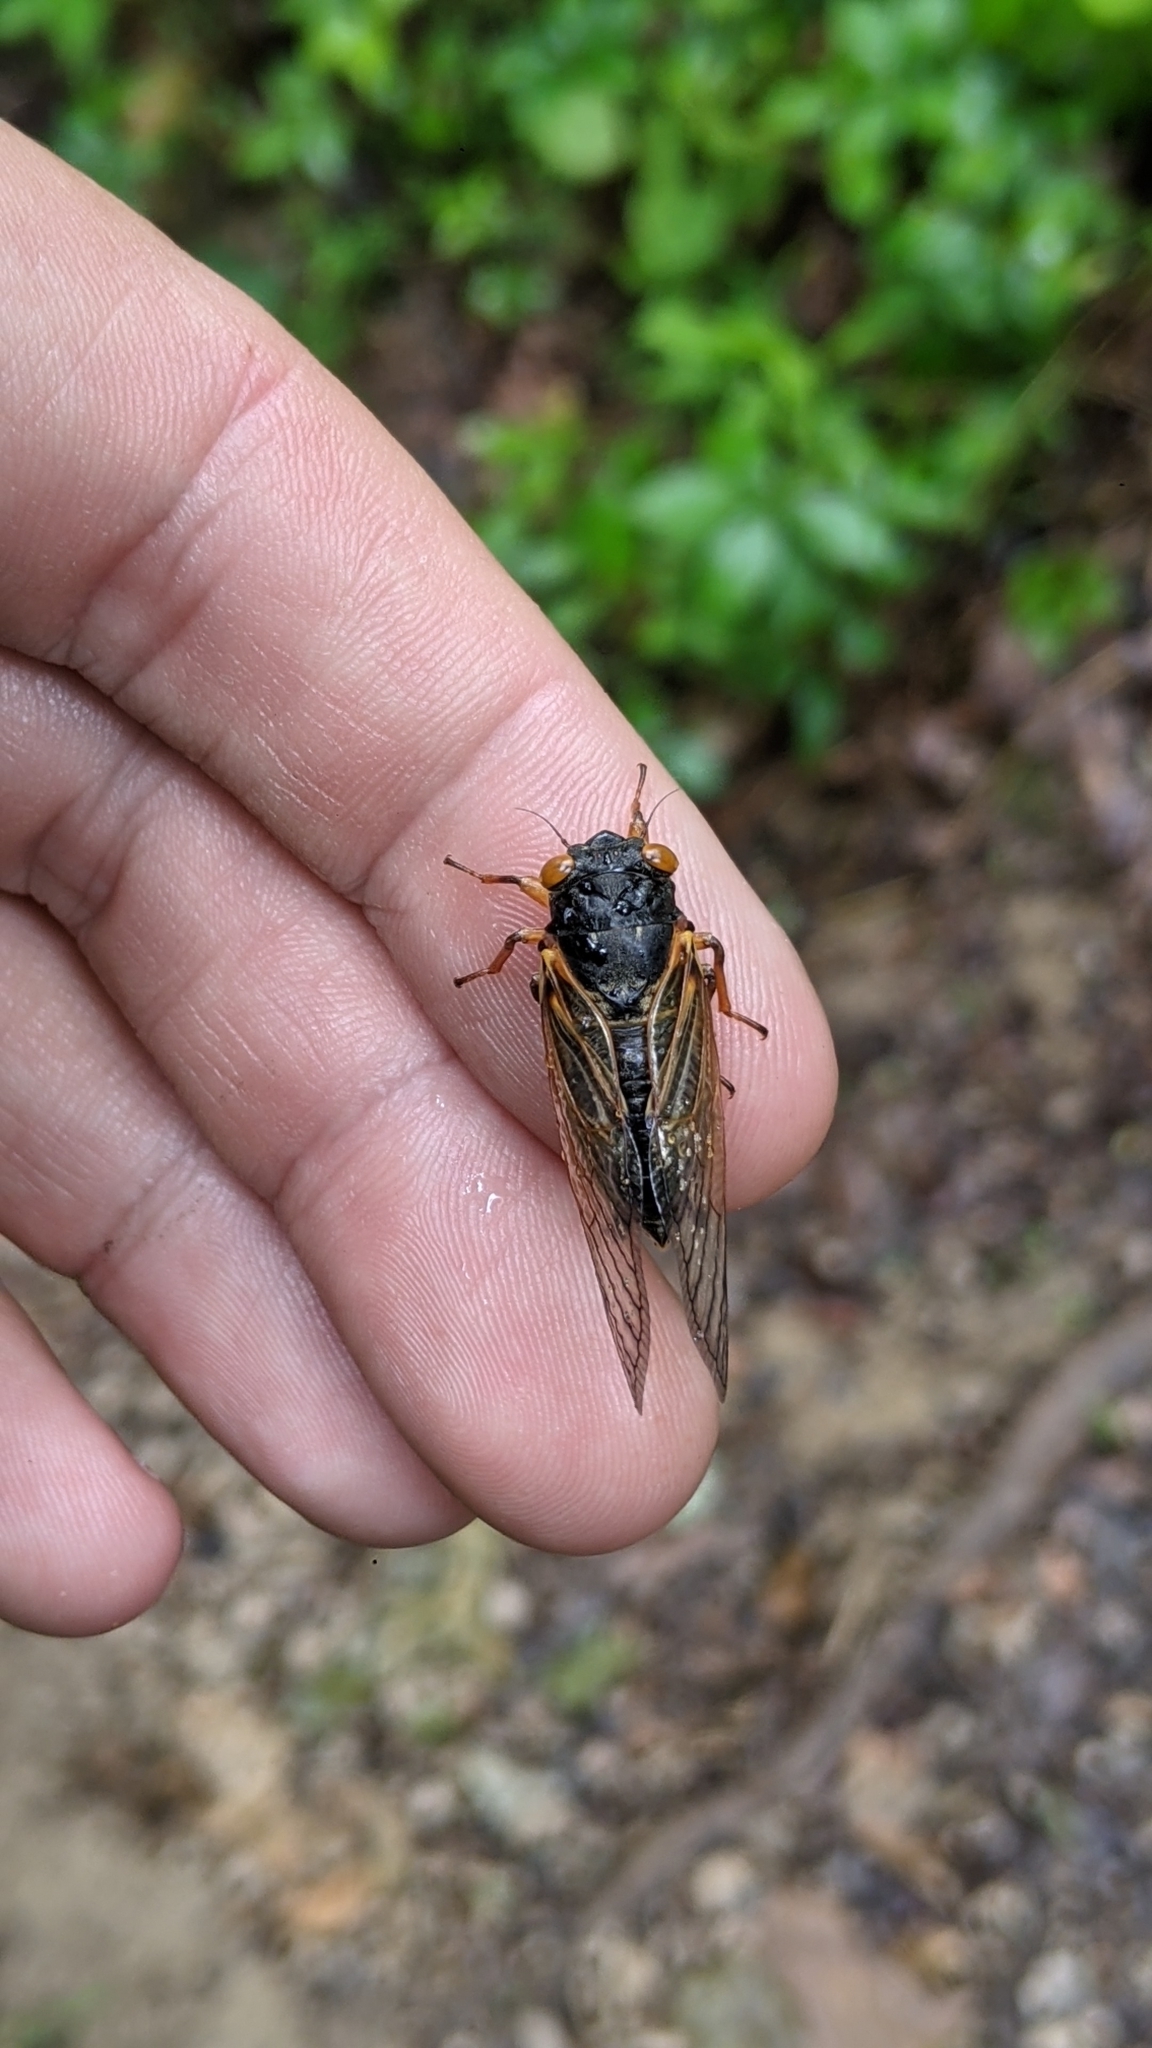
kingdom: Animalia
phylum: Arthropoda
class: Insecta
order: Hemiptera
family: Cicadidae
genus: Magicicada
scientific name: Magicicada cassini
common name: Cassin's 17-year cicada
